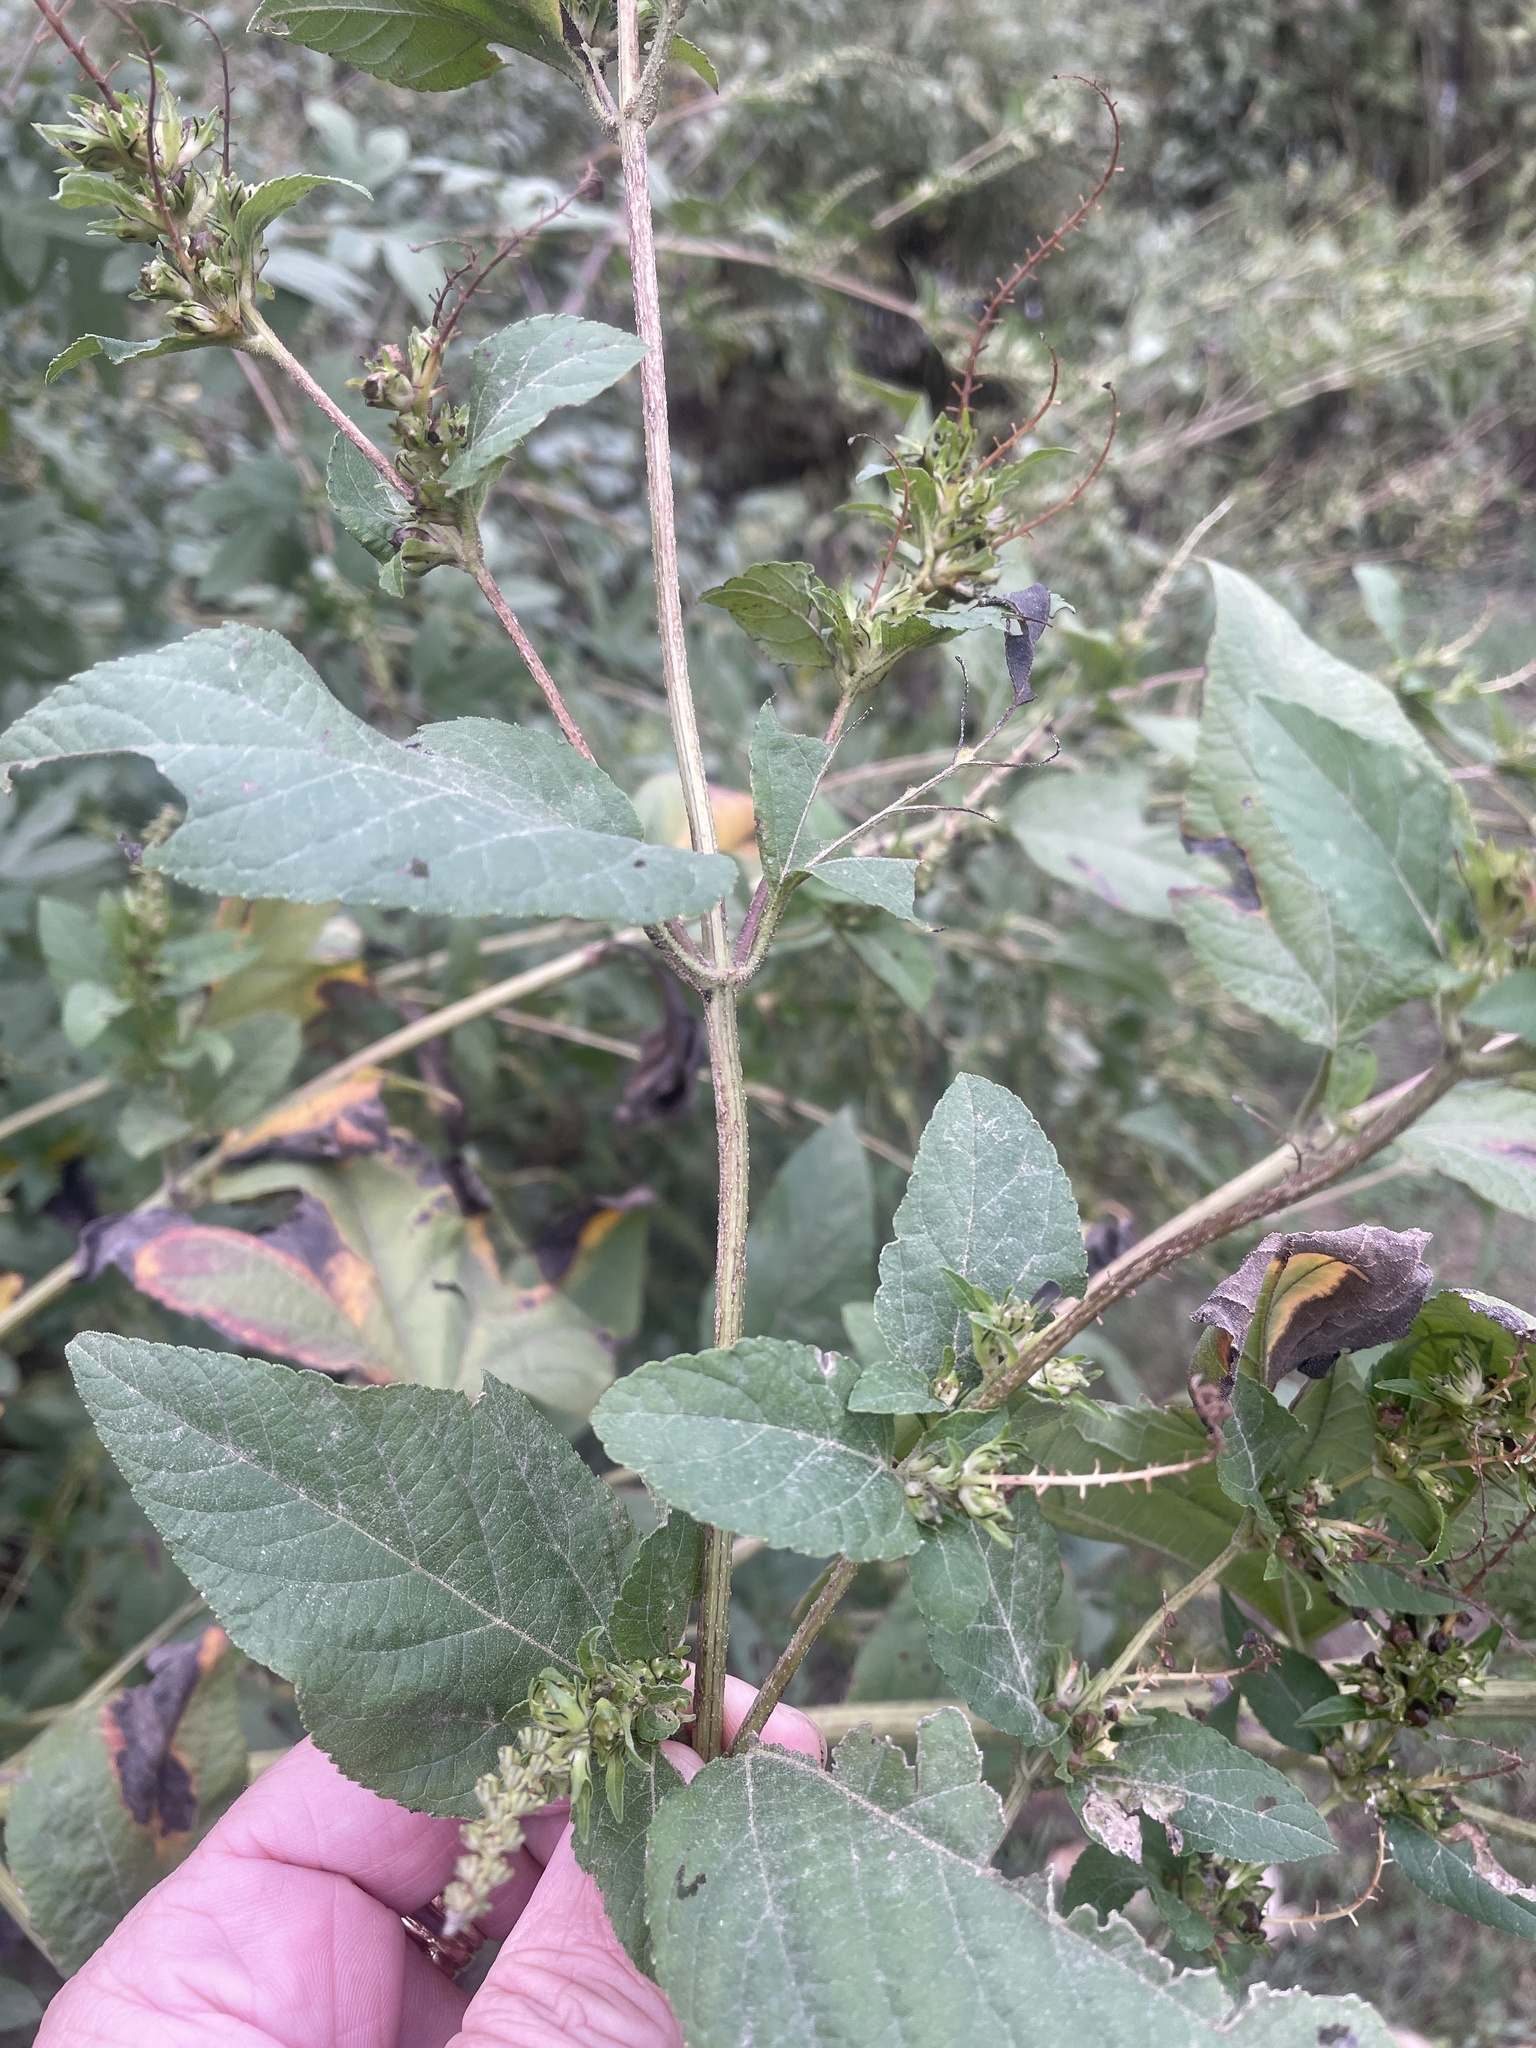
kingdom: Plantae
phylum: Tracheophyta
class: Magnoliopsida
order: Asterales
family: Asteraceae
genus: Ambrosia
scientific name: Ambrosia trifida
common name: Giant ragweed
